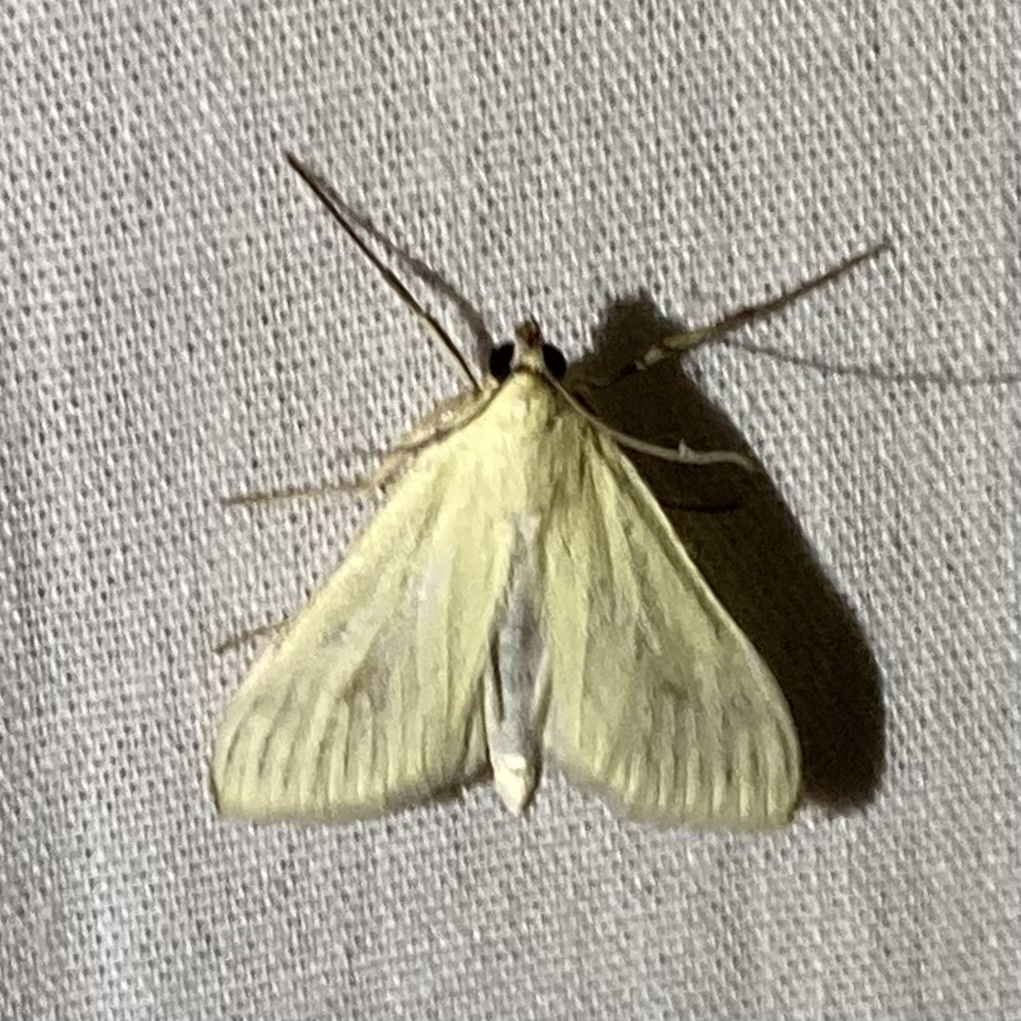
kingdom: Animalia
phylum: Arthropoda
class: Insecta
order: Lepidoptera
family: Crambidae
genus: Sitochroa
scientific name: Sitochroa palealis
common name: Greenish-yellow sitochroa moth
